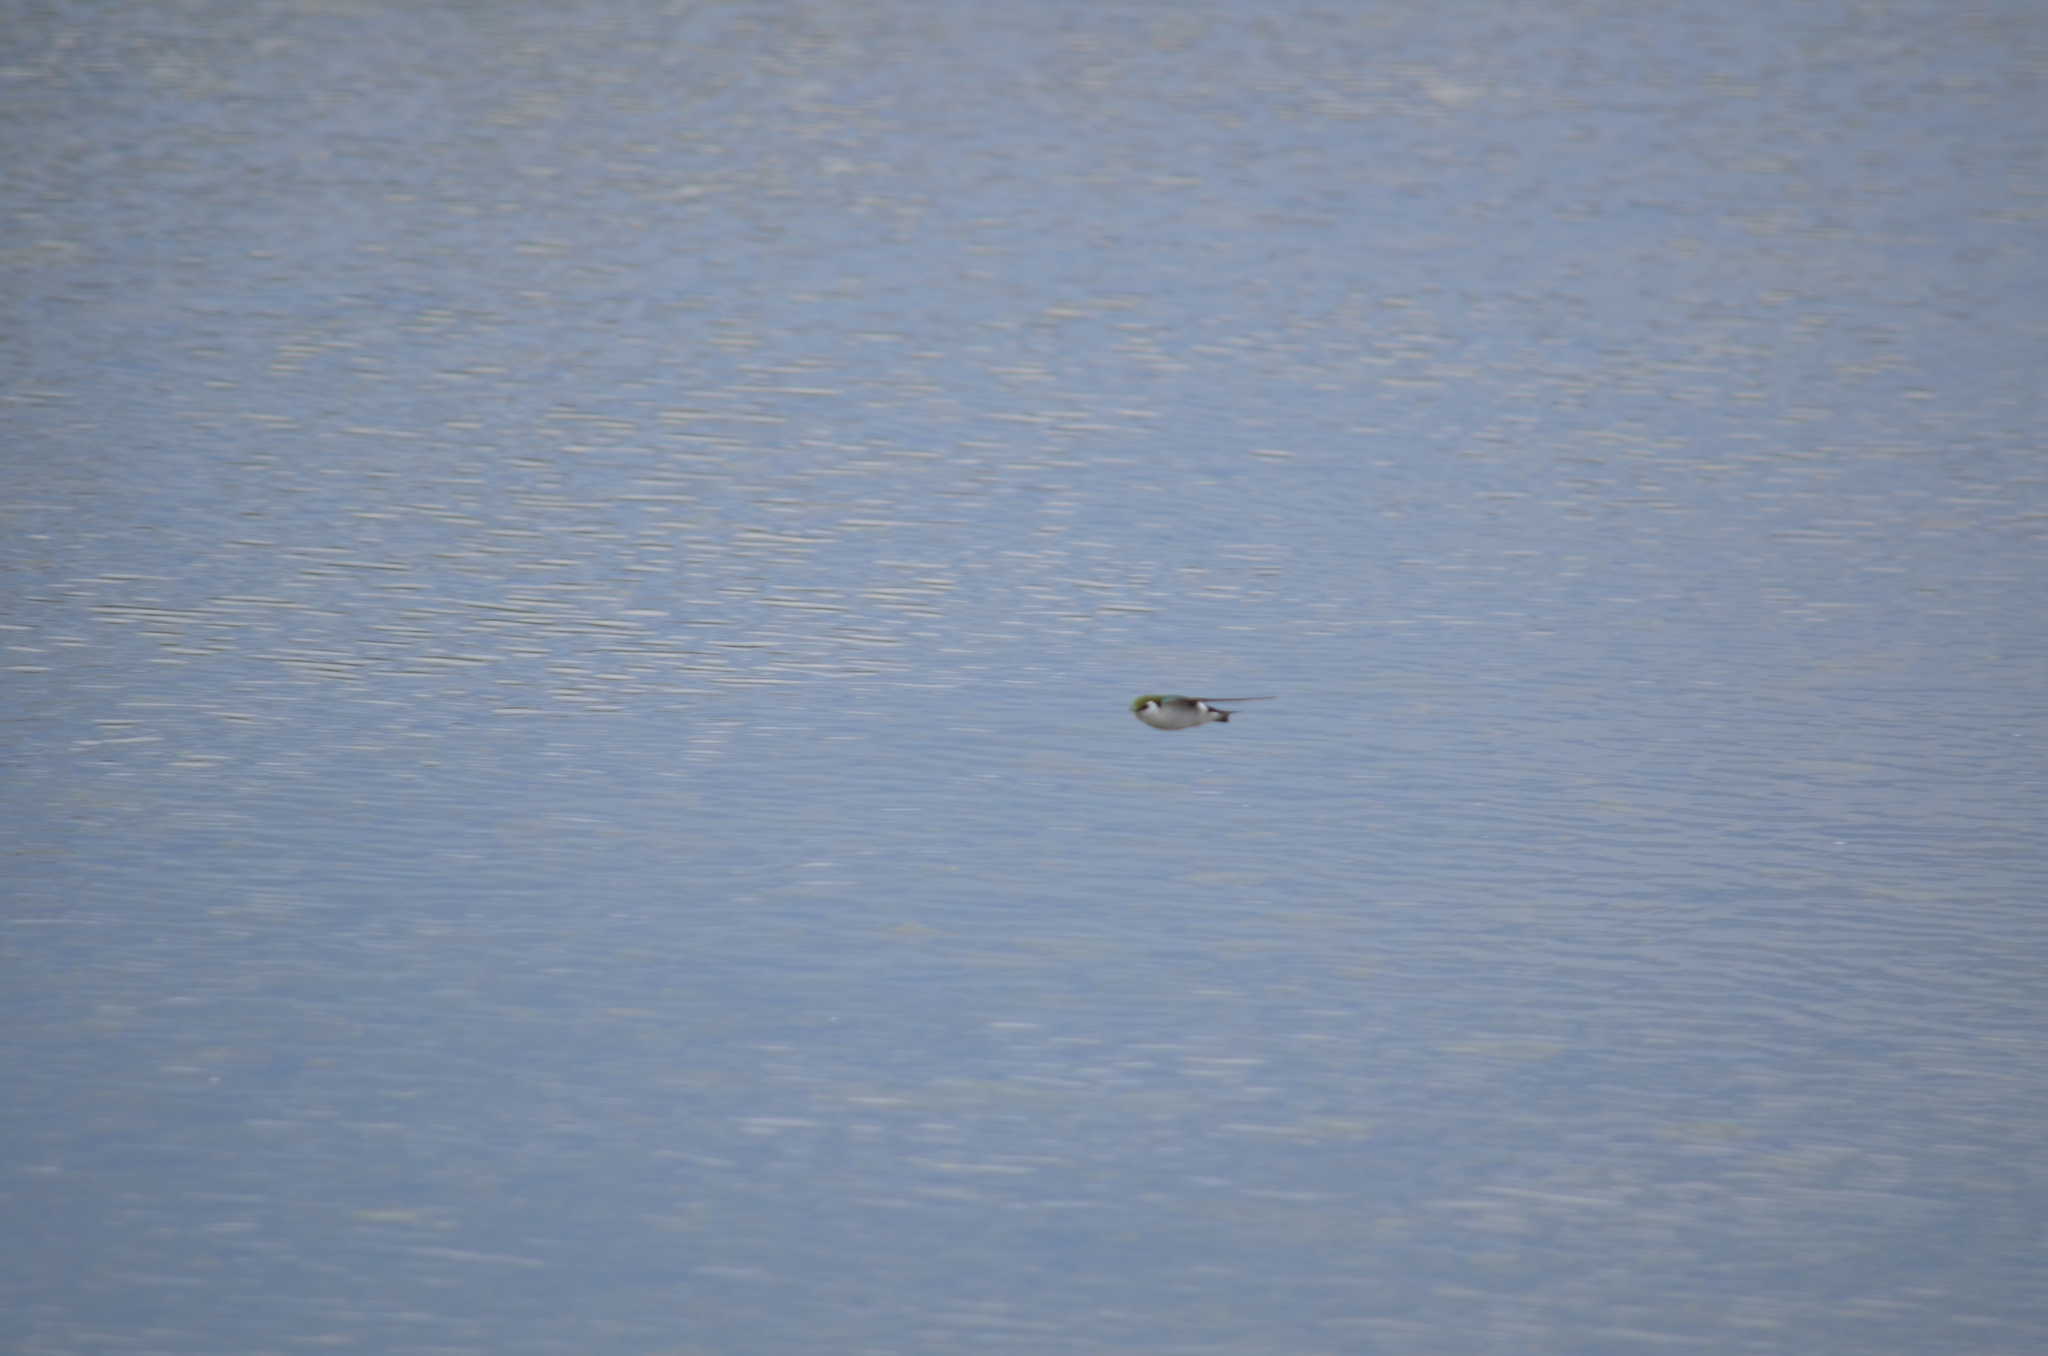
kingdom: Animalia
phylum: Chordata
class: Aves
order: Passeriformes
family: Hirundinidae
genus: Tachycineta
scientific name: Tachycineta thalassina
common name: Violet-green swallow
